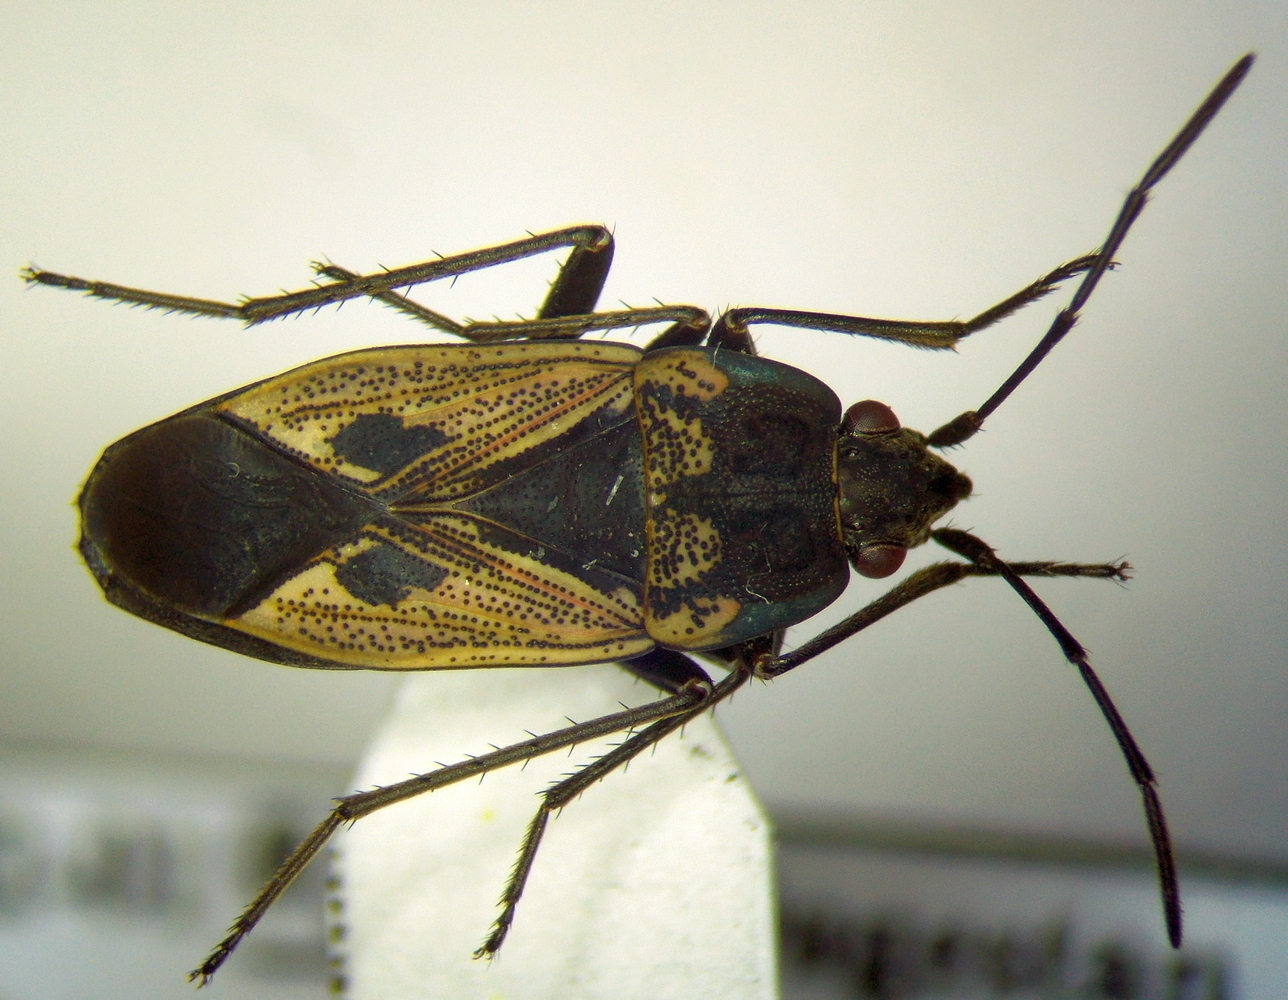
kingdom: Animalia
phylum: Arthropoda
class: Insecta
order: Hemiptera
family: Rhyparochromidae
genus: Rhyparochromus
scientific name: Rhyparochromus phoeniceus
